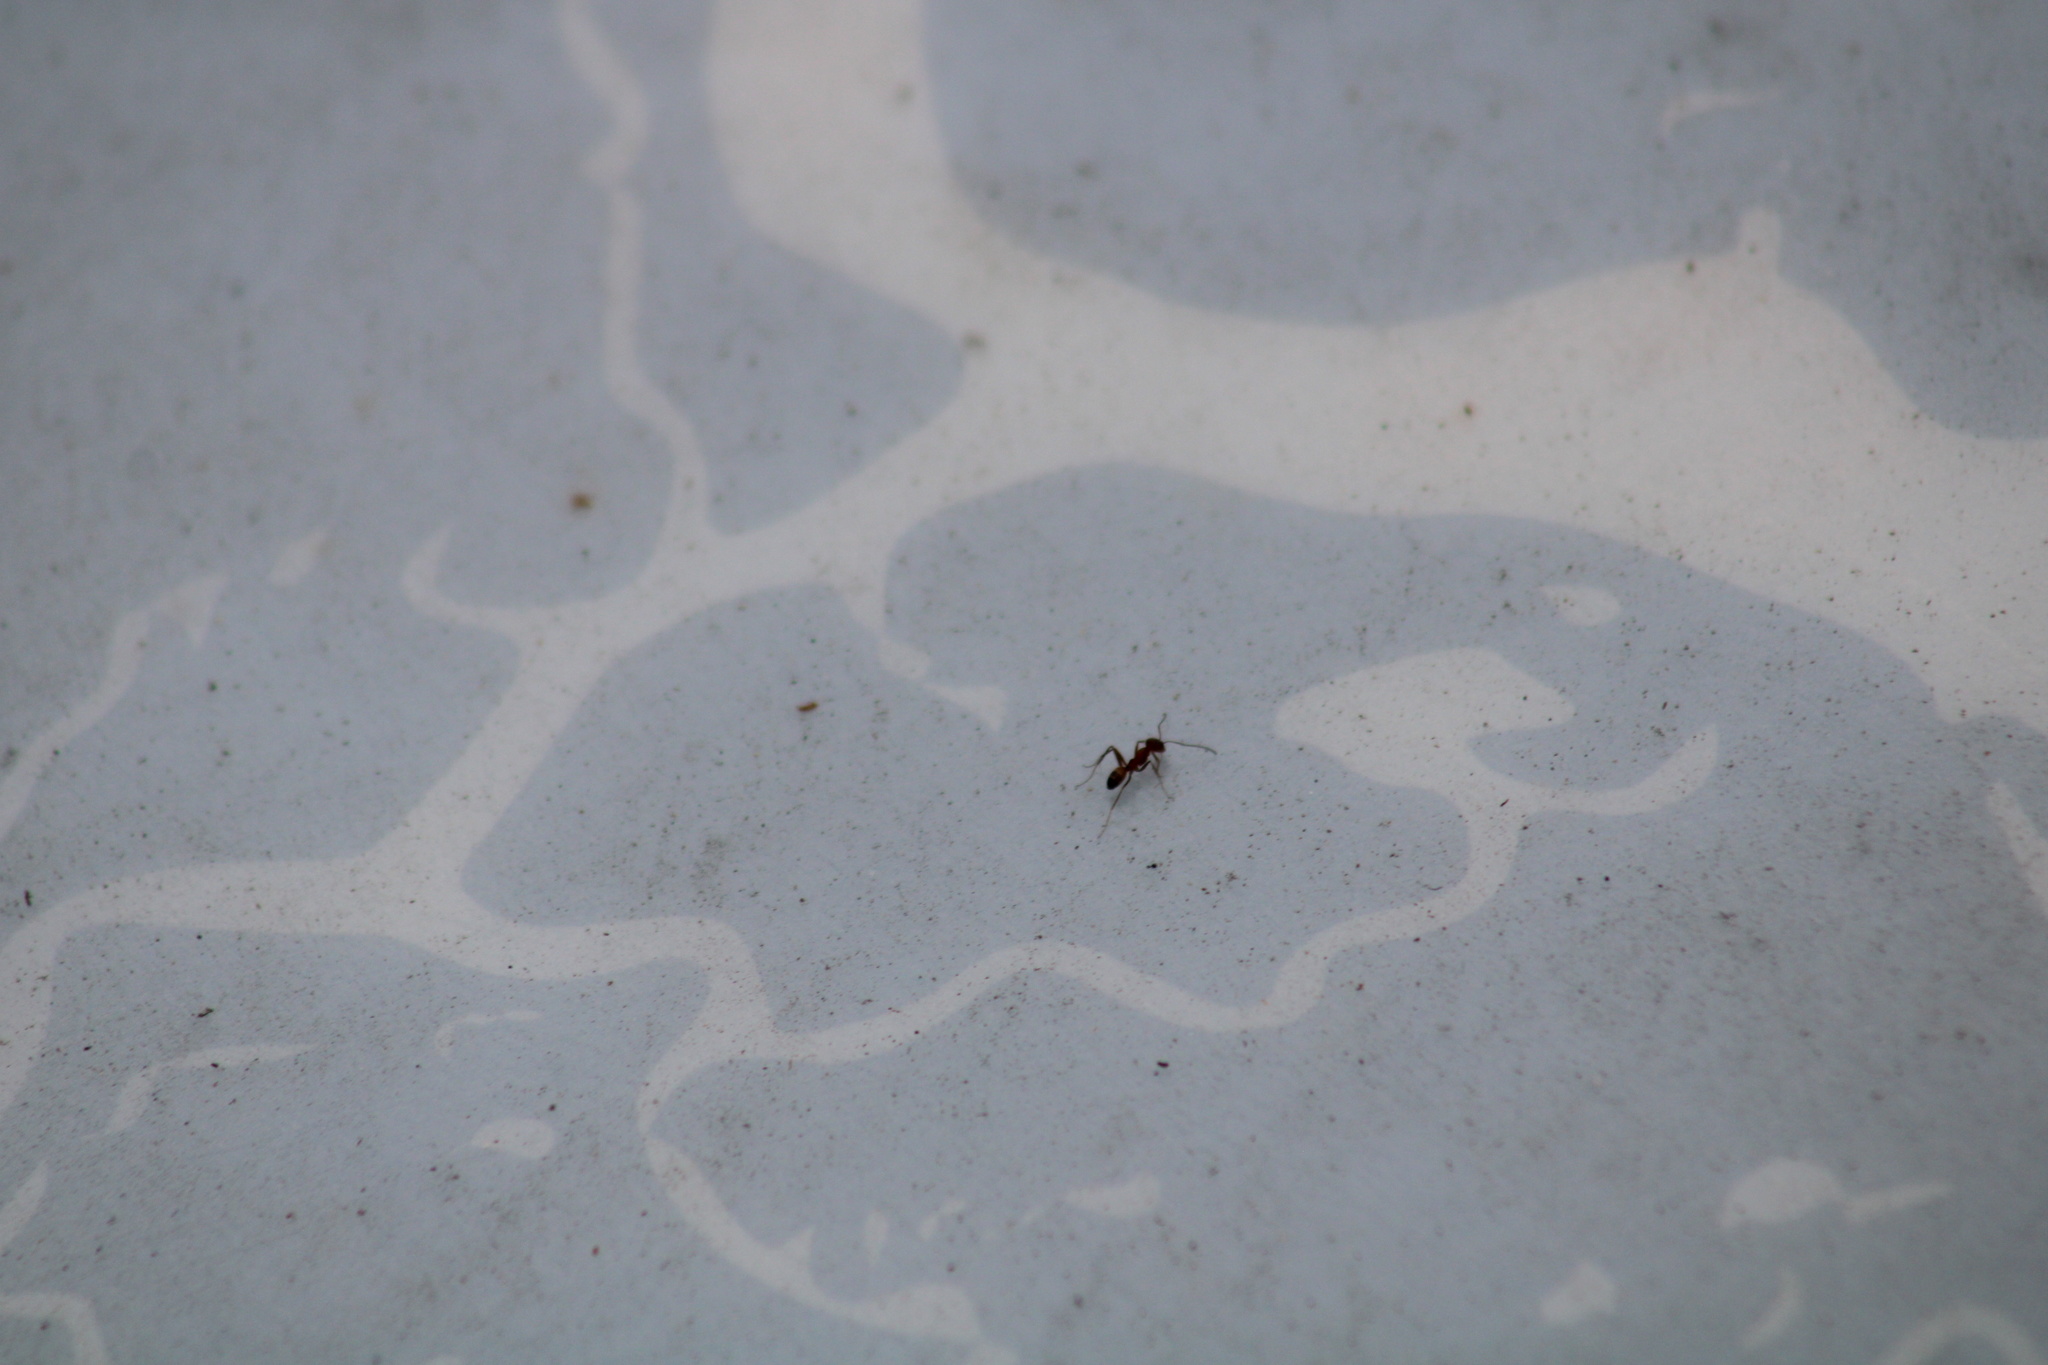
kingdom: Animalia
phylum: Arthropoda
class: Insecta
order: Hymenoptera
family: Formicidae
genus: Dorymyrmex
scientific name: Dorymyrmex bureni
